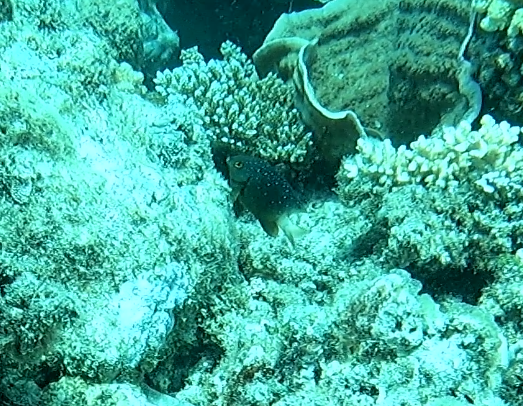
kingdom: Animalia
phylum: Chordata
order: Perciformes
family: Pomacentridae
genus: Plectroglyphidodon
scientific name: Plectroglyphidodon lacrymatus
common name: Jewel damsel
